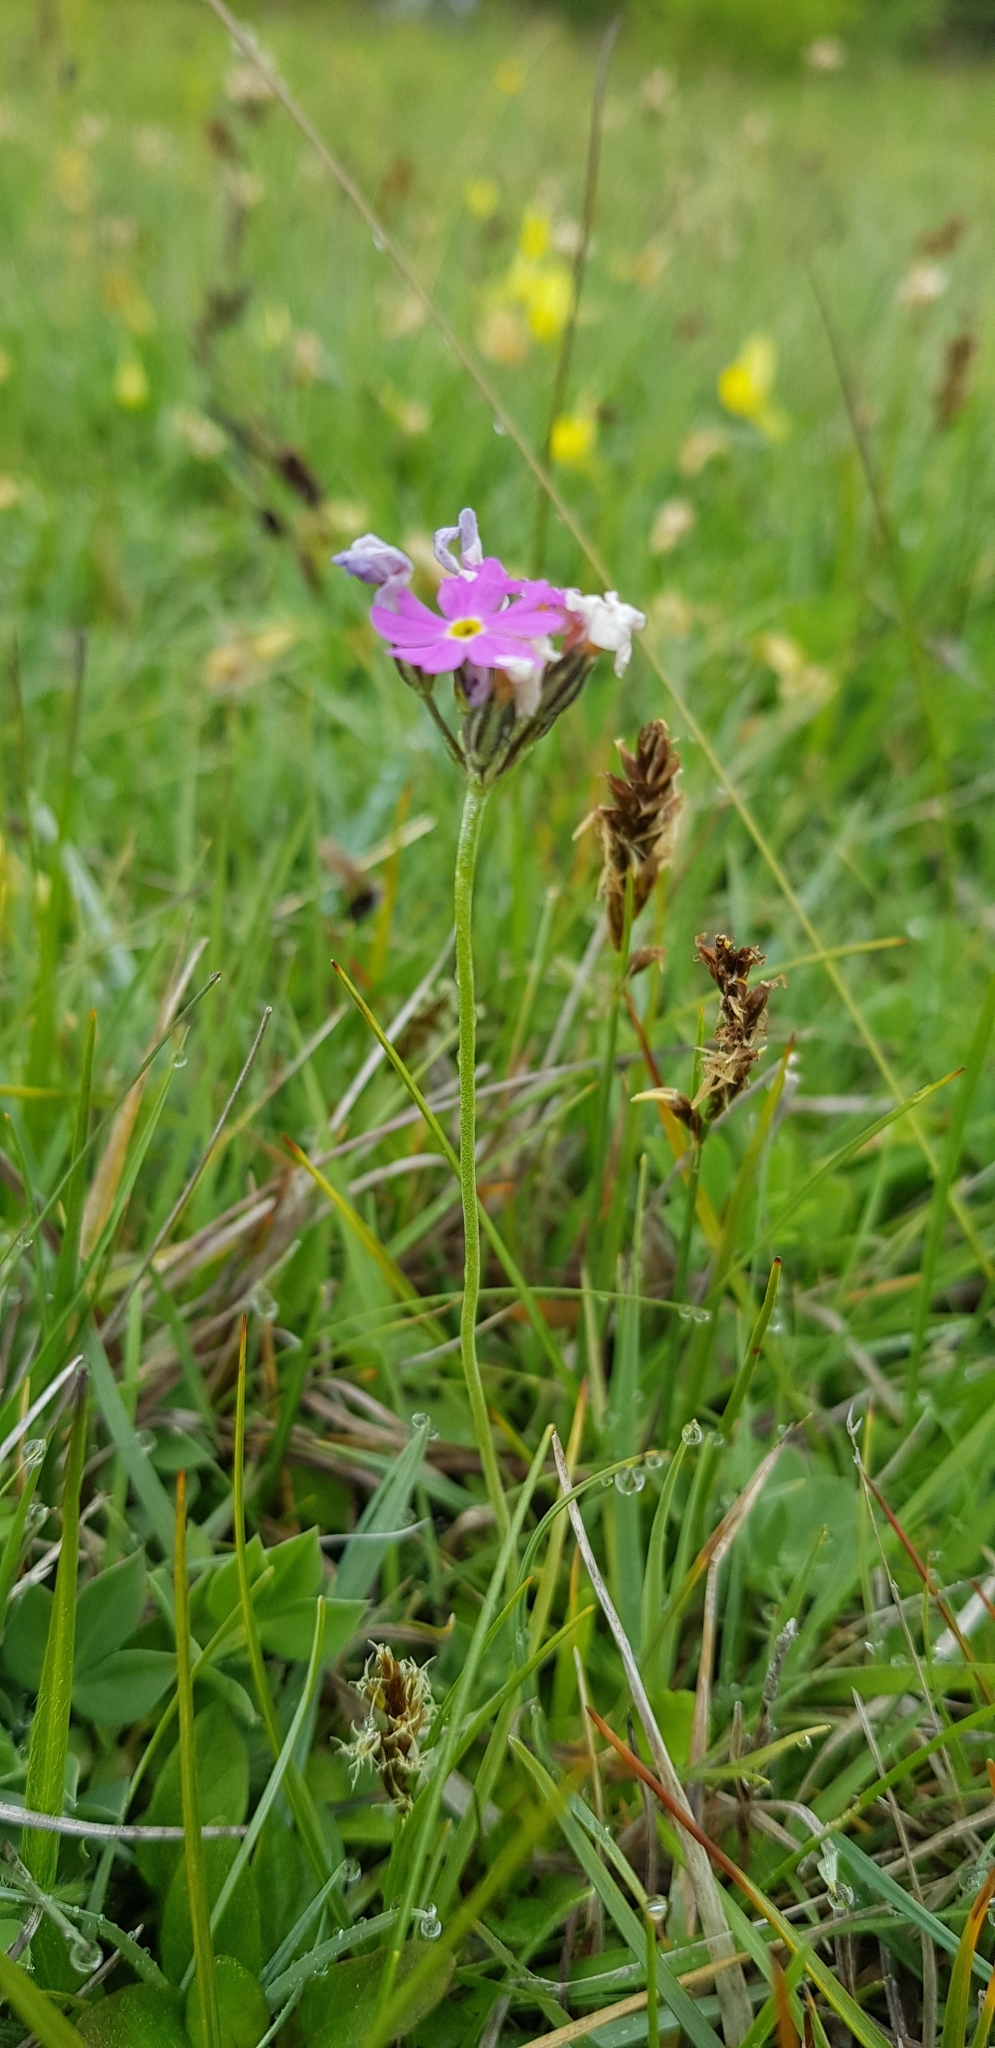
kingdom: Plantae
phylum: Tracheophyta
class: Magnoliopsida
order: Ericales
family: Primulaceae
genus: Primula
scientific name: Primula farinosa
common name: Bird's-eye primrose
